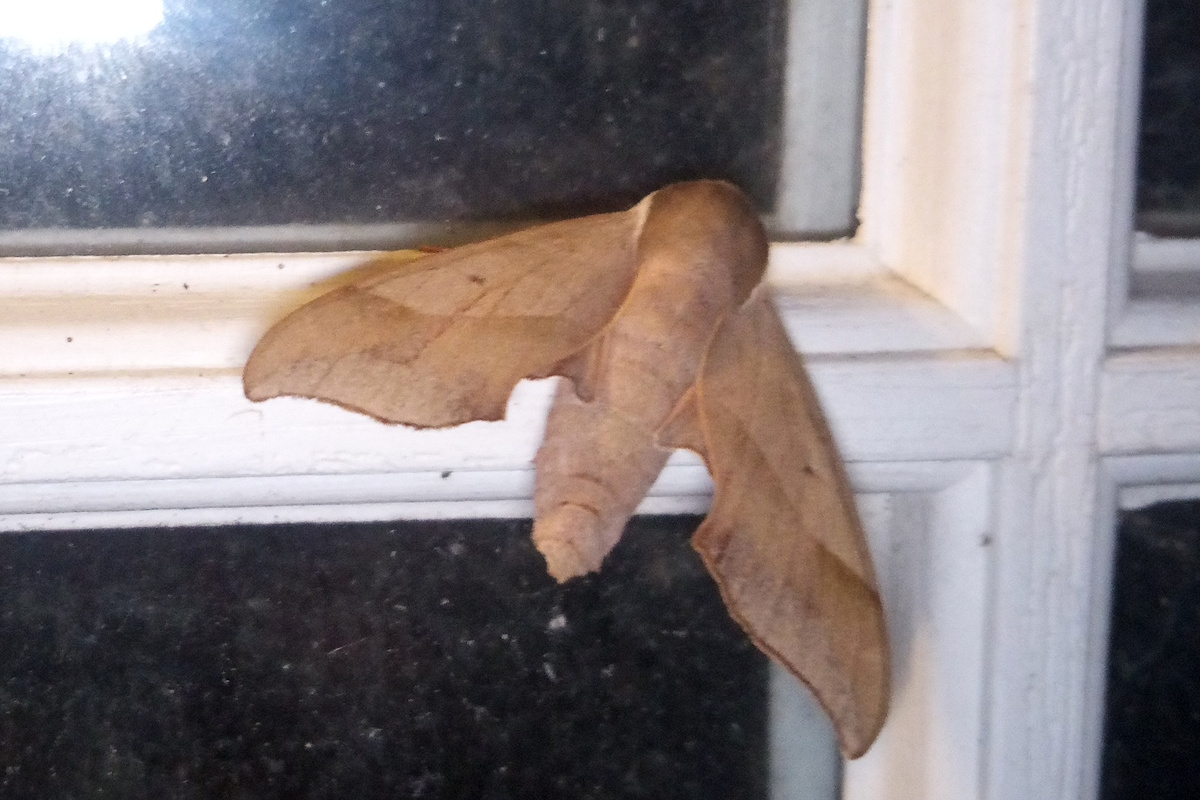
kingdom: Animalia
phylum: Arthropoda
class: Insecta
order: Lepidoptera
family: Sphingidae
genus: Darapsa
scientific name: Darapsa myron
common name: Hog sphinx
